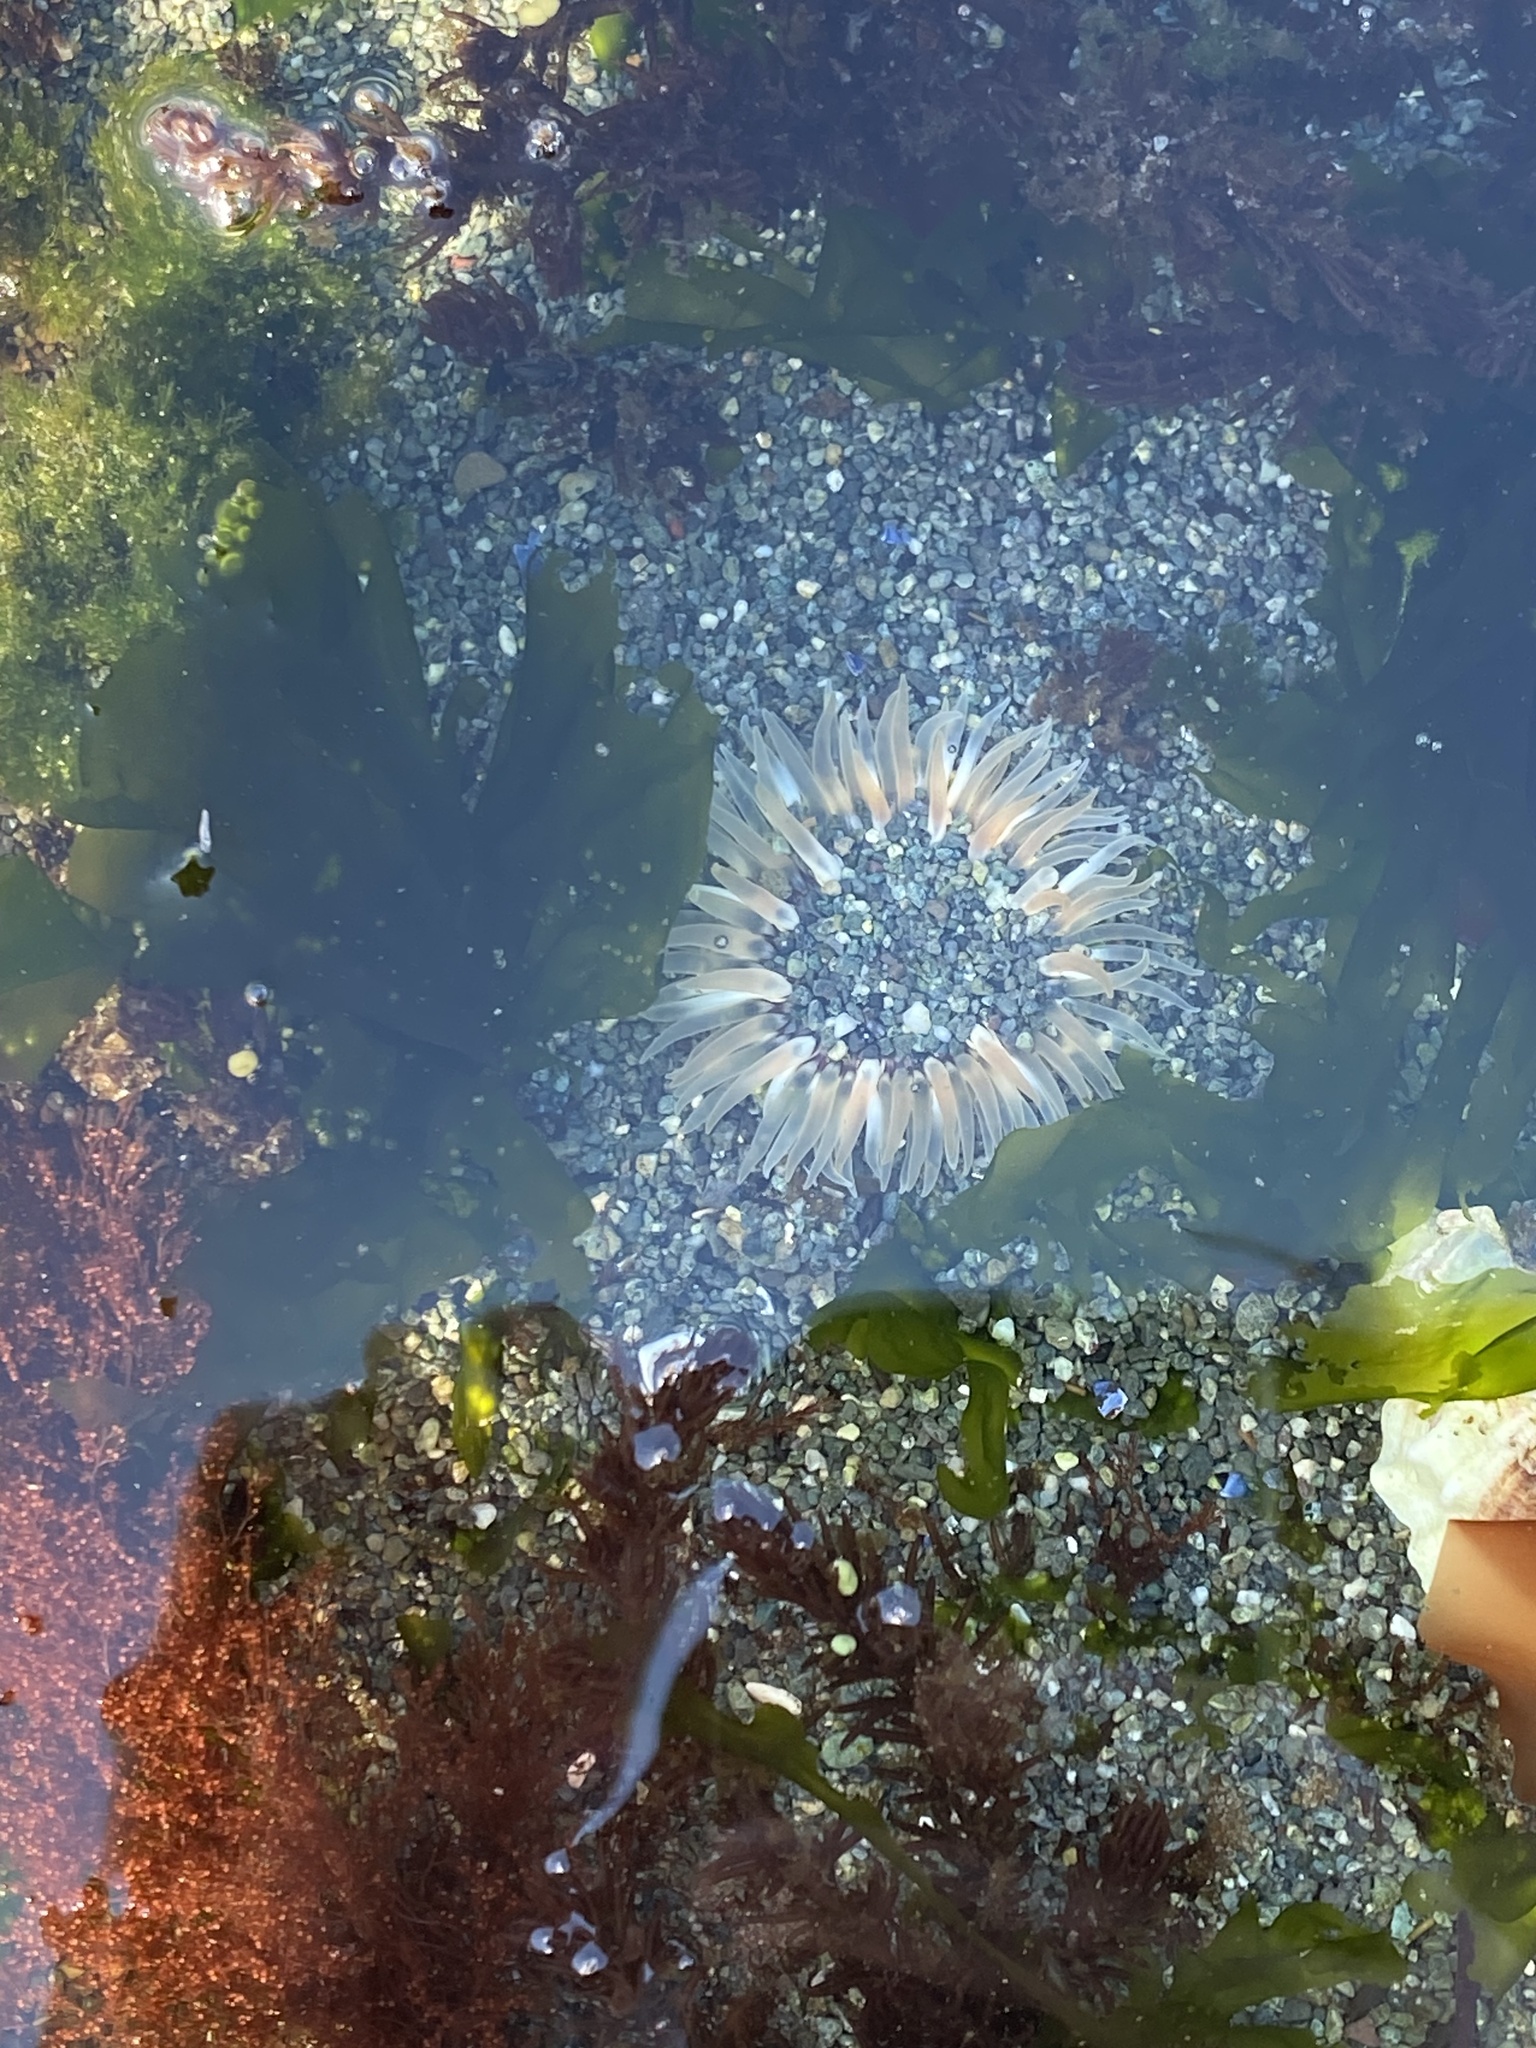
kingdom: Animalia
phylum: Cnidaria
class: Anthozoa
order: Actiniaria
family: Actiniidae
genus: Anthopleura
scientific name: Anthopleura artemisia
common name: Buried sea anemone
